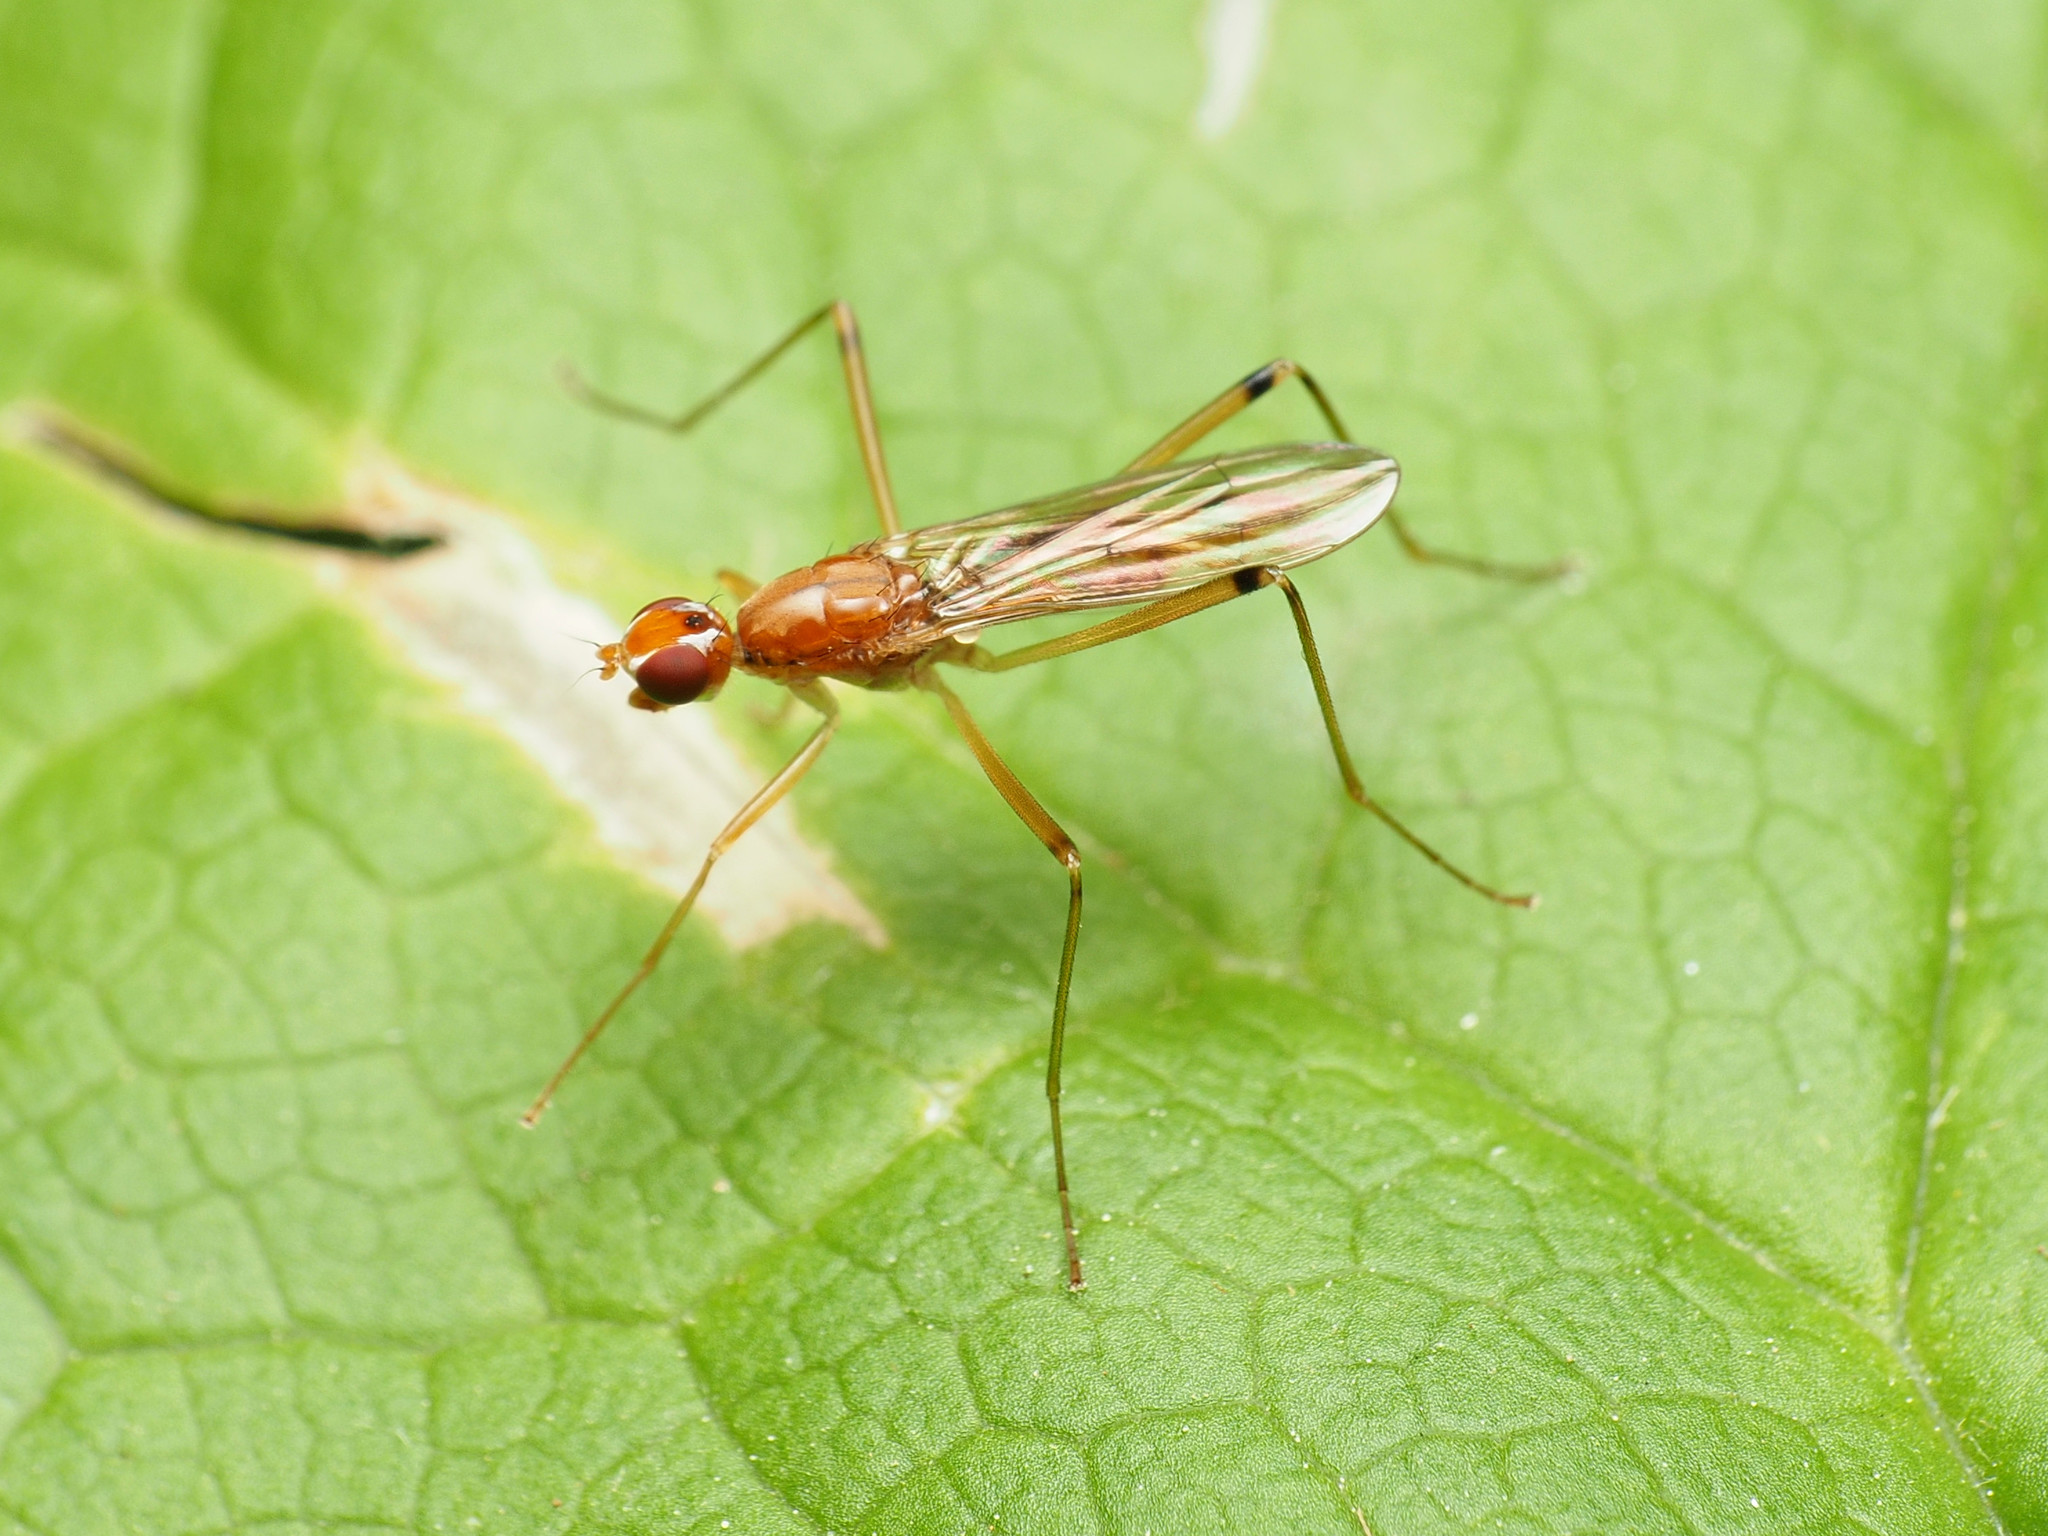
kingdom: Animalia
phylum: Arthropoda
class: Insecta
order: Diptera
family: Micropezidae
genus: Compsobata
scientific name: Compsobata univitta
